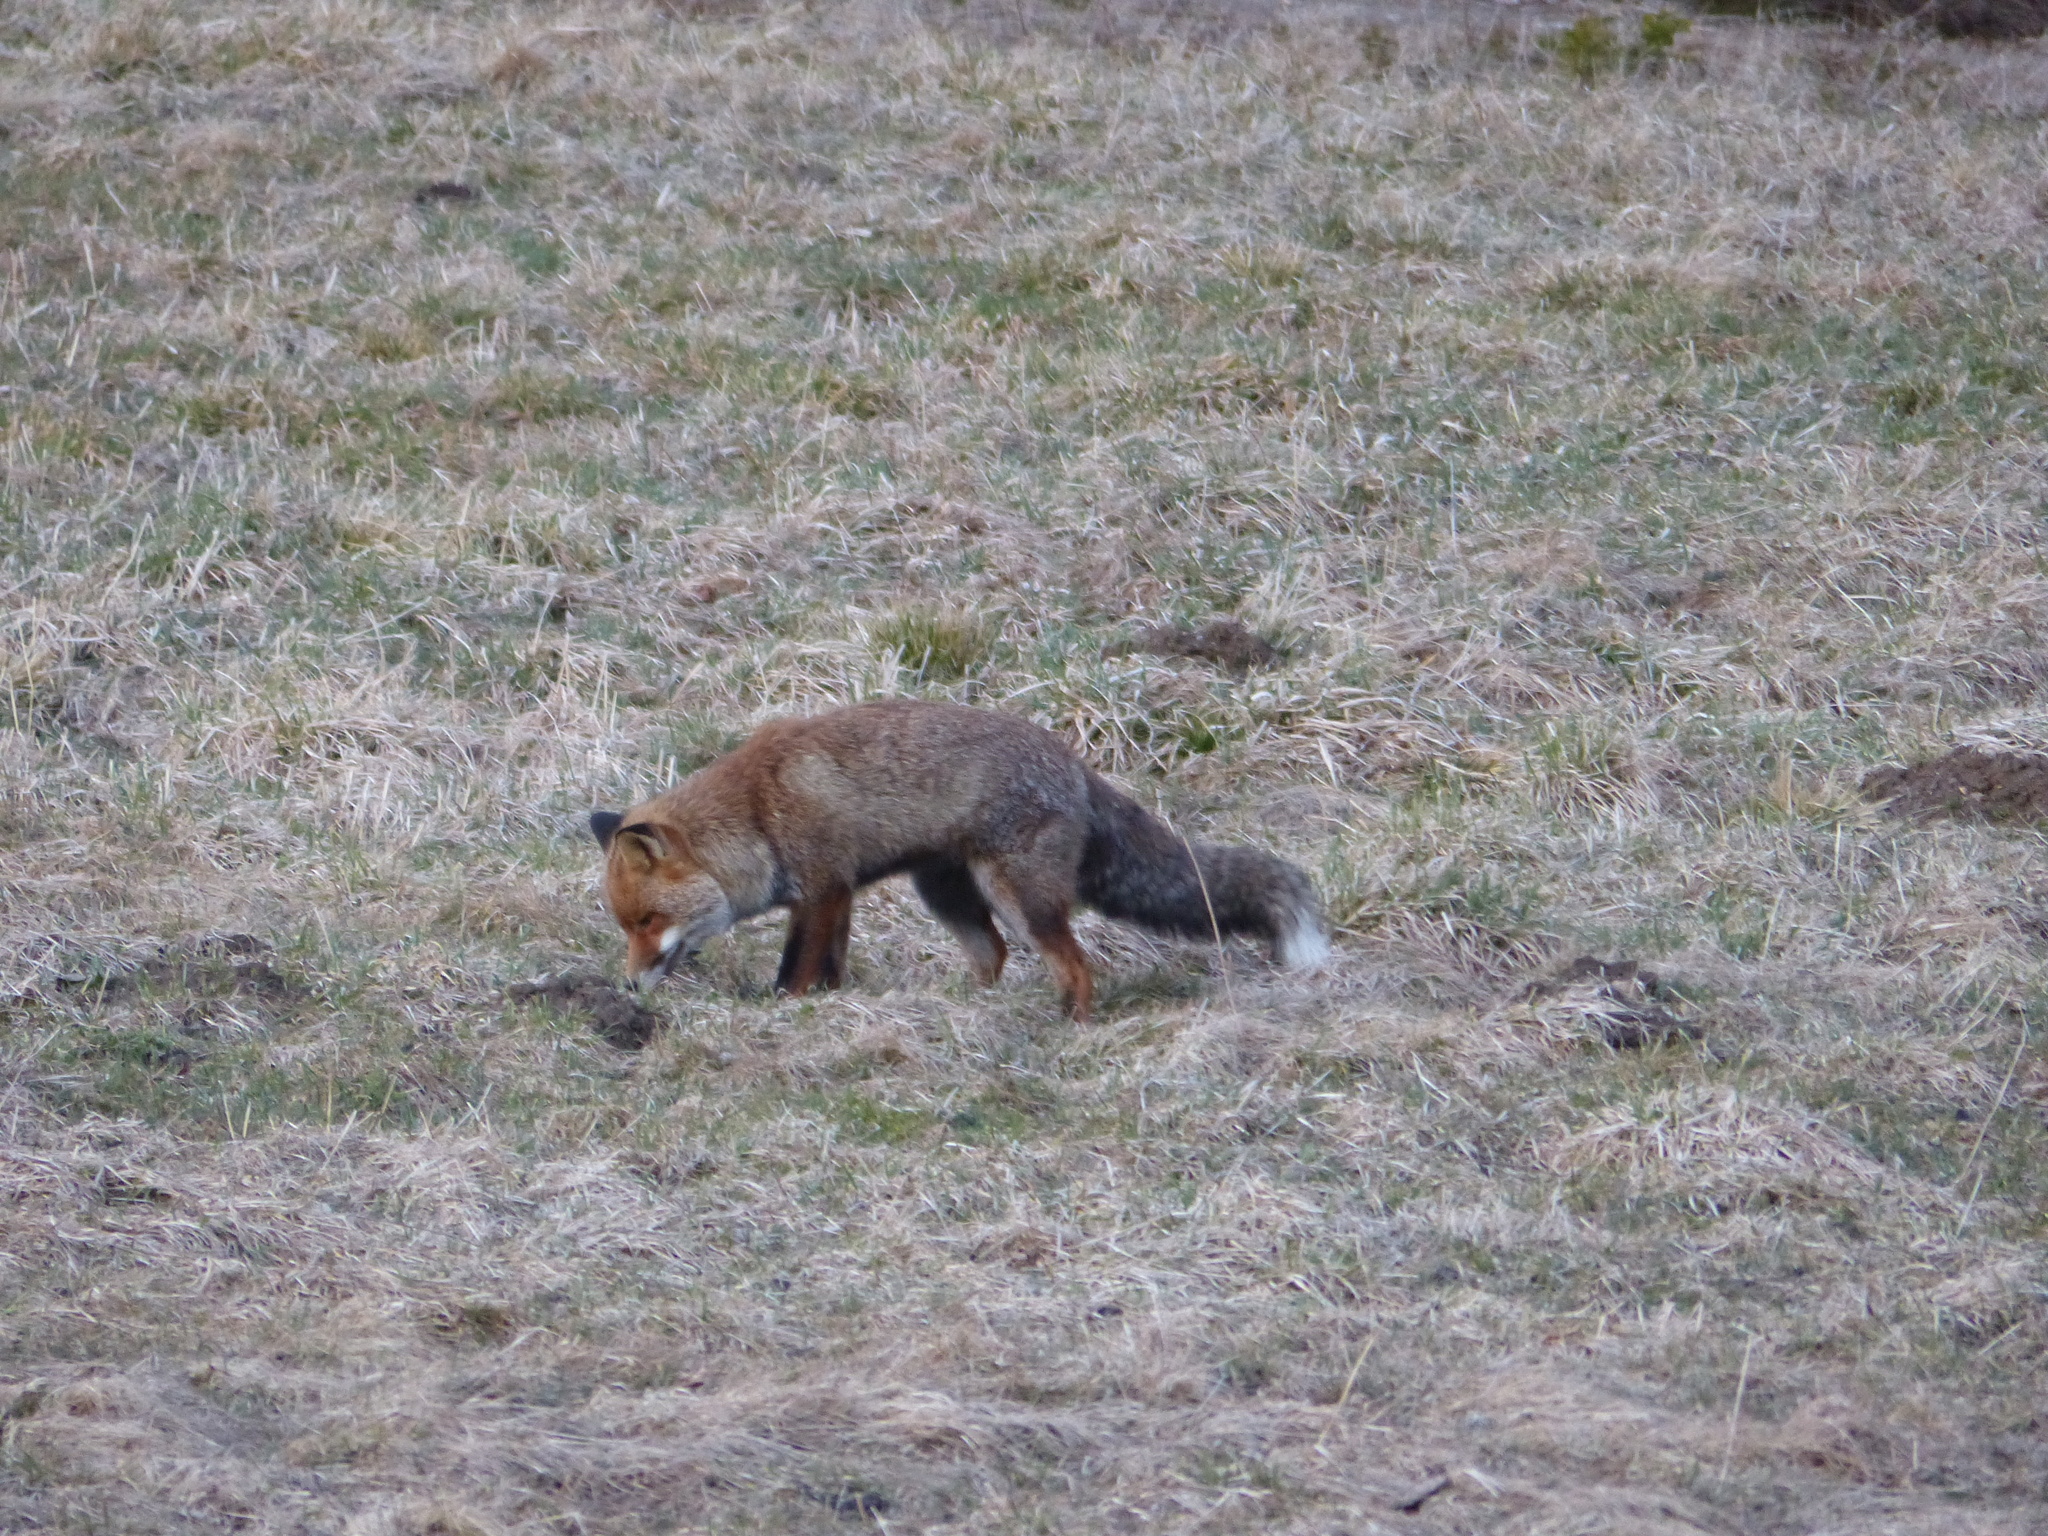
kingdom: Animalia
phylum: Chordata
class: Mammalia
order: Carnivora
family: Canidae
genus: Vulpes
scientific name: Vulpes vulpes
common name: Red fox
